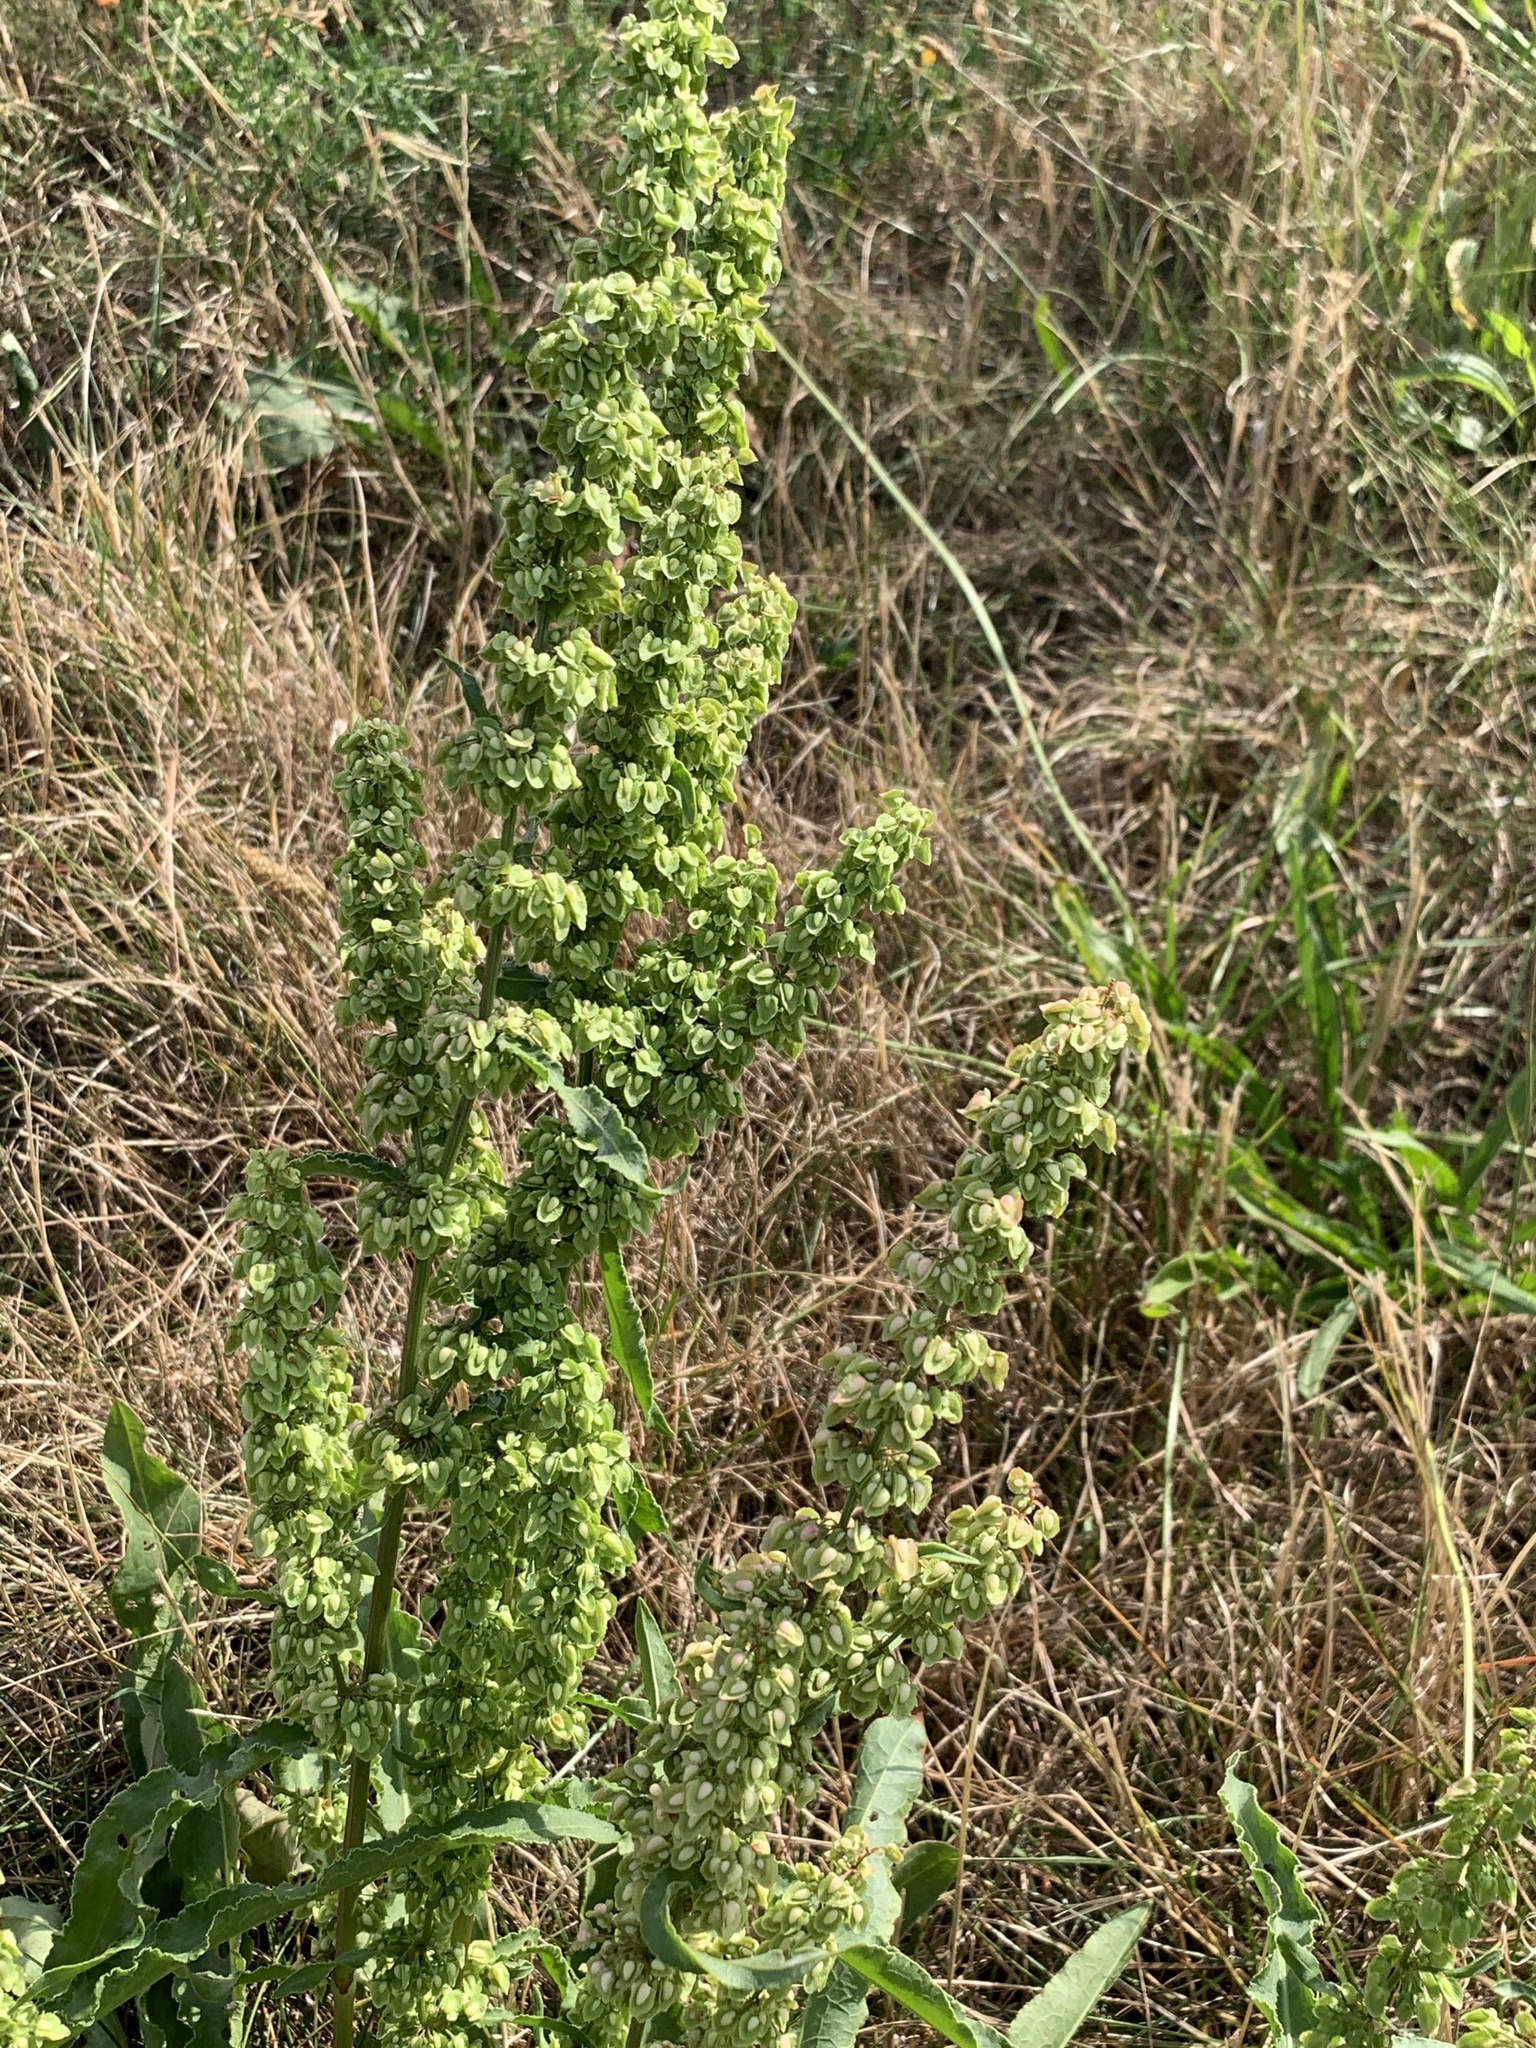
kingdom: Plantae
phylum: Tracheophyta
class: Magnoliopsida
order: Caryophyllales
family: Polygonaceae
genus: Rumex
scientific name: Rumex crispus
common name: Curled dock
